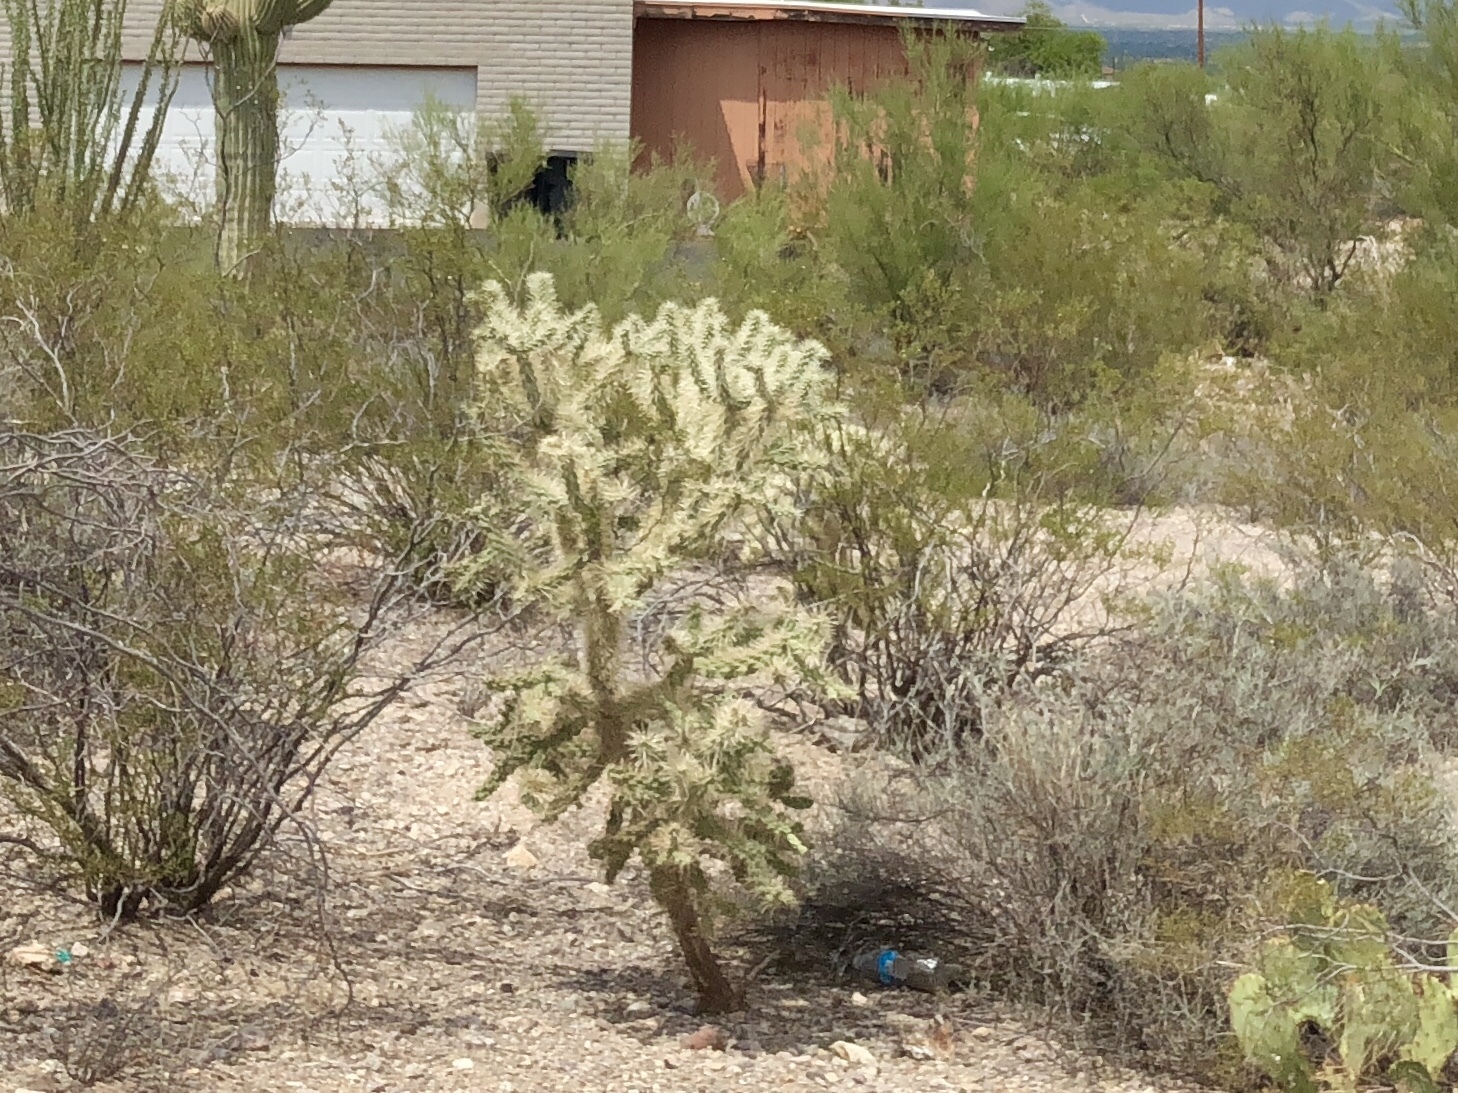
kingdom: Plantae
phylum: Tracheophyta
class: Magnoliopsida
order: Caryophyllales
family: Cactaceae
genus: Cylindropuntia
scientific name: Cylindropuntia fulgida
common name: Jumping cholla
